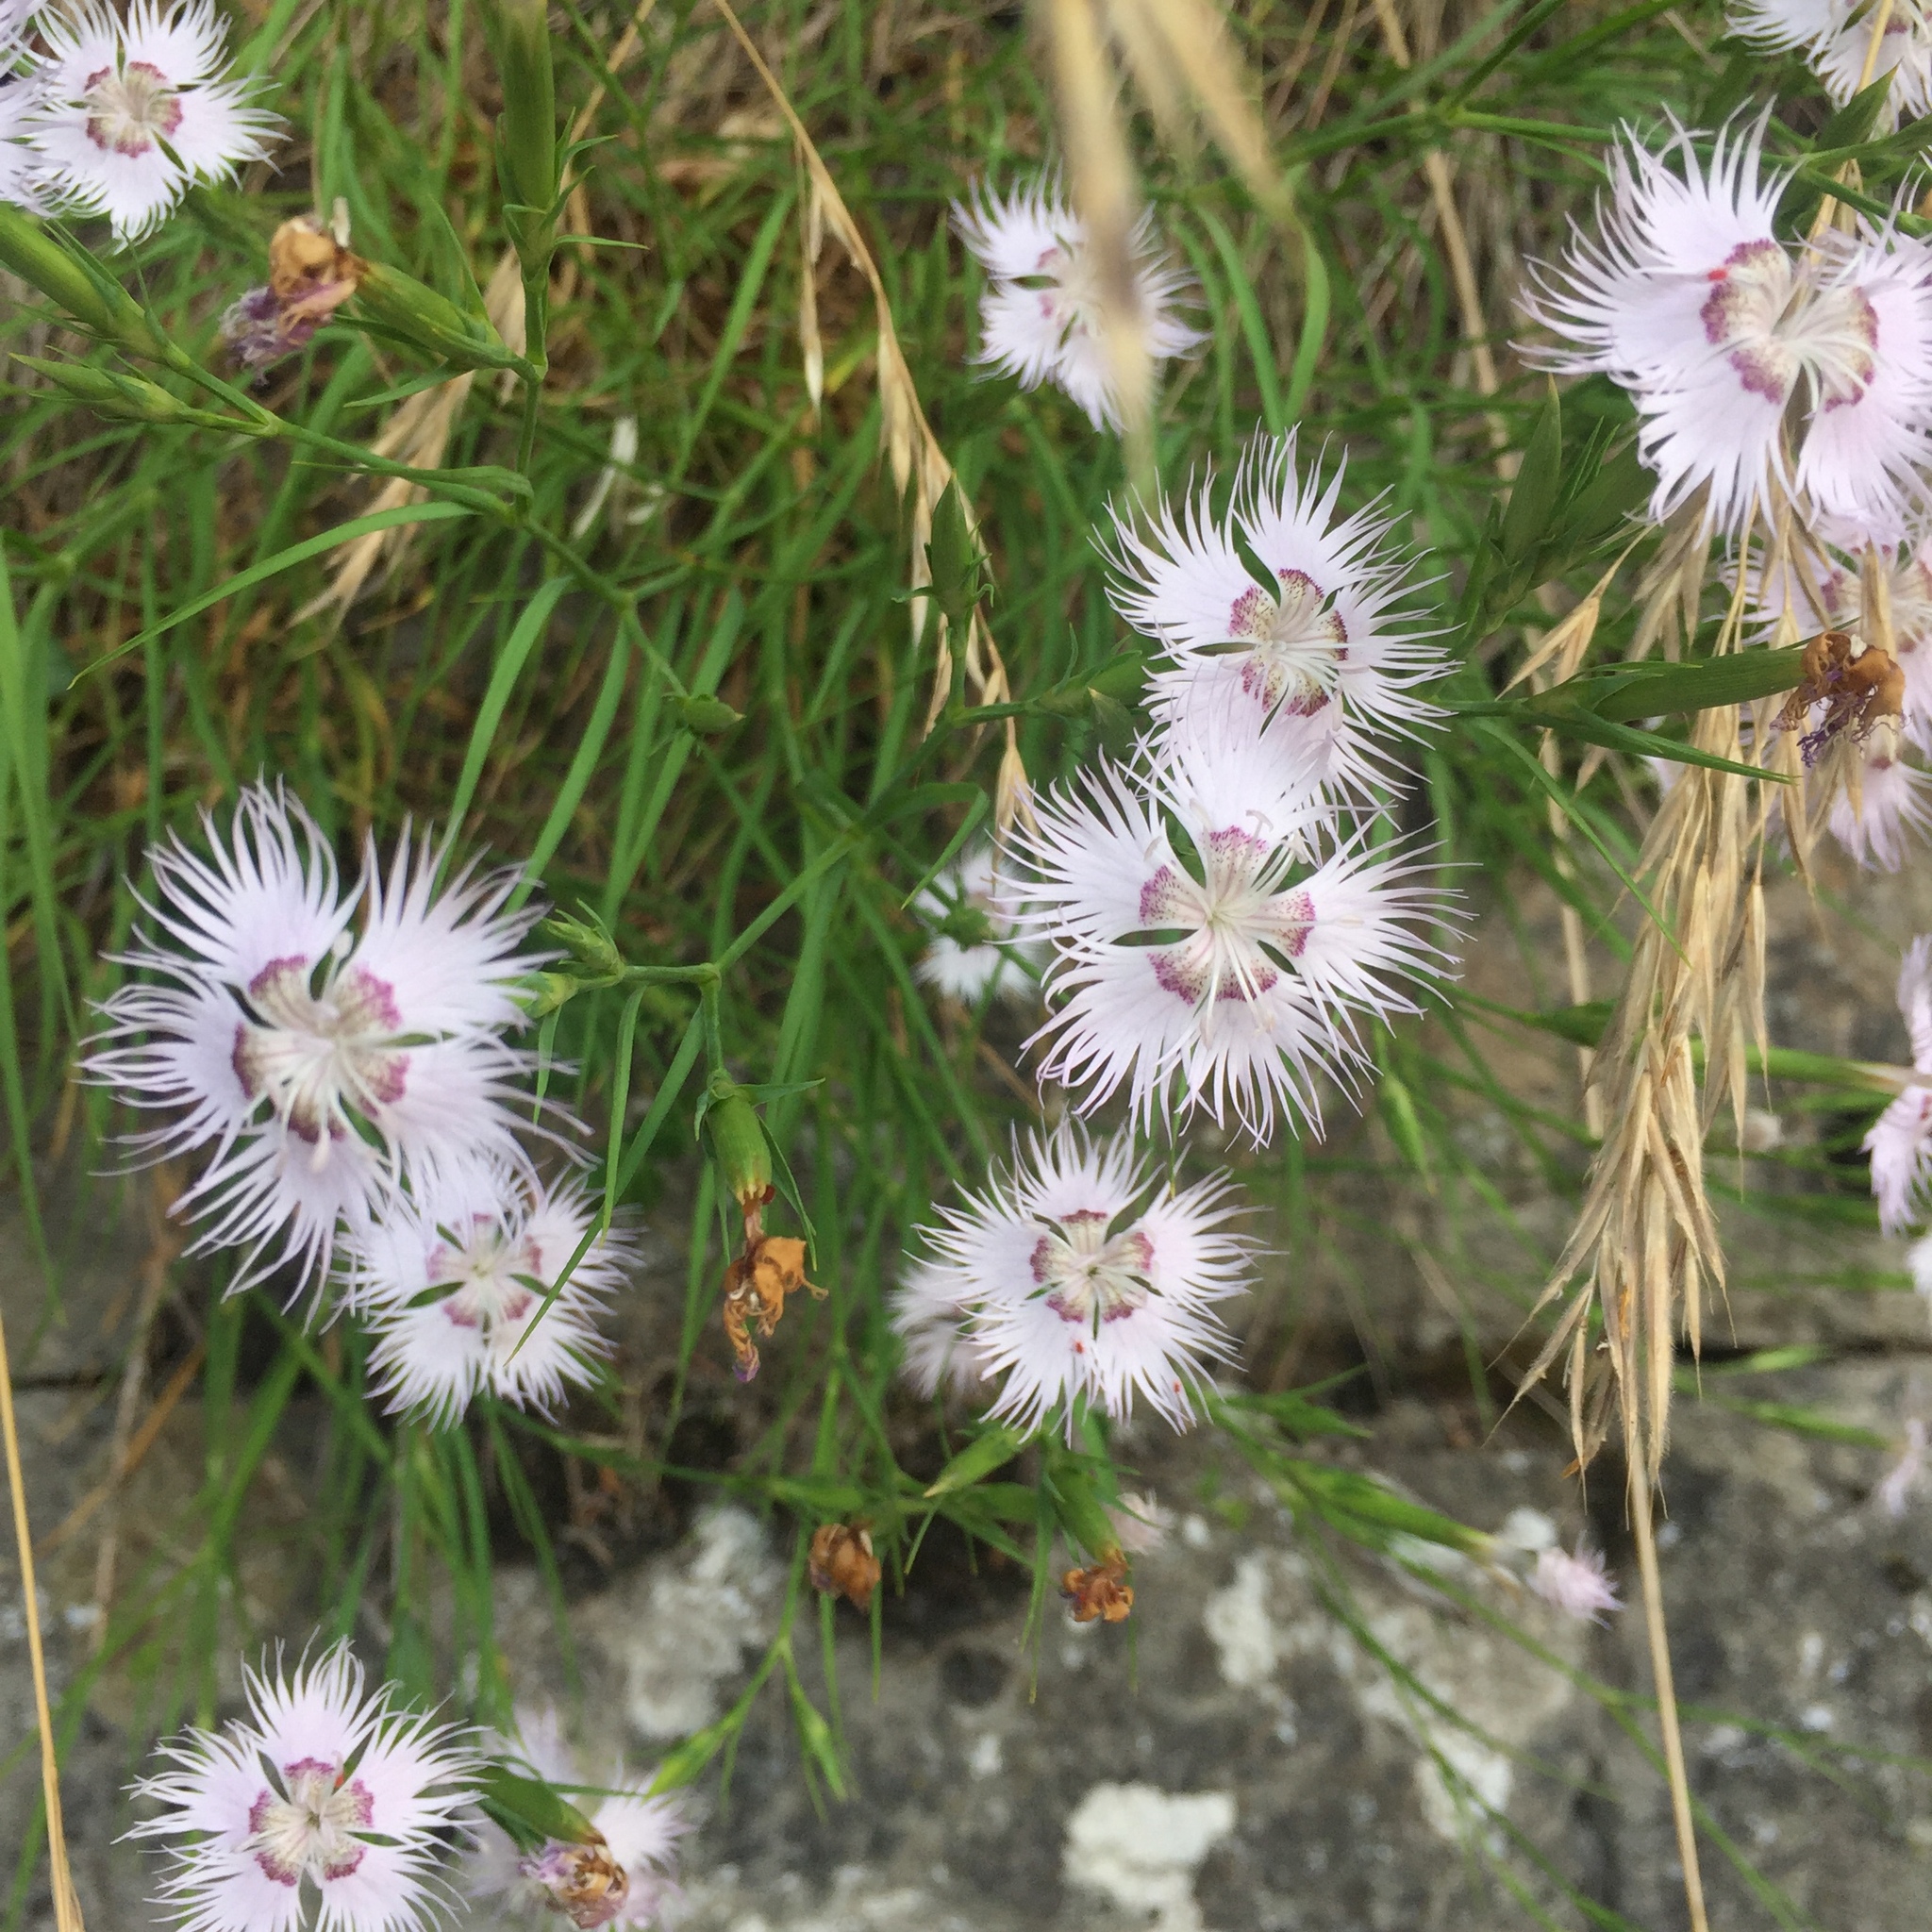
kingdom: Plantae
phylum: Tracheophyta
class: Magnoliopsida
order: Caryophyllales
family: Caryophyllaceae
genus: Dianthus
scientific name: Dianthus hyssopifolius
